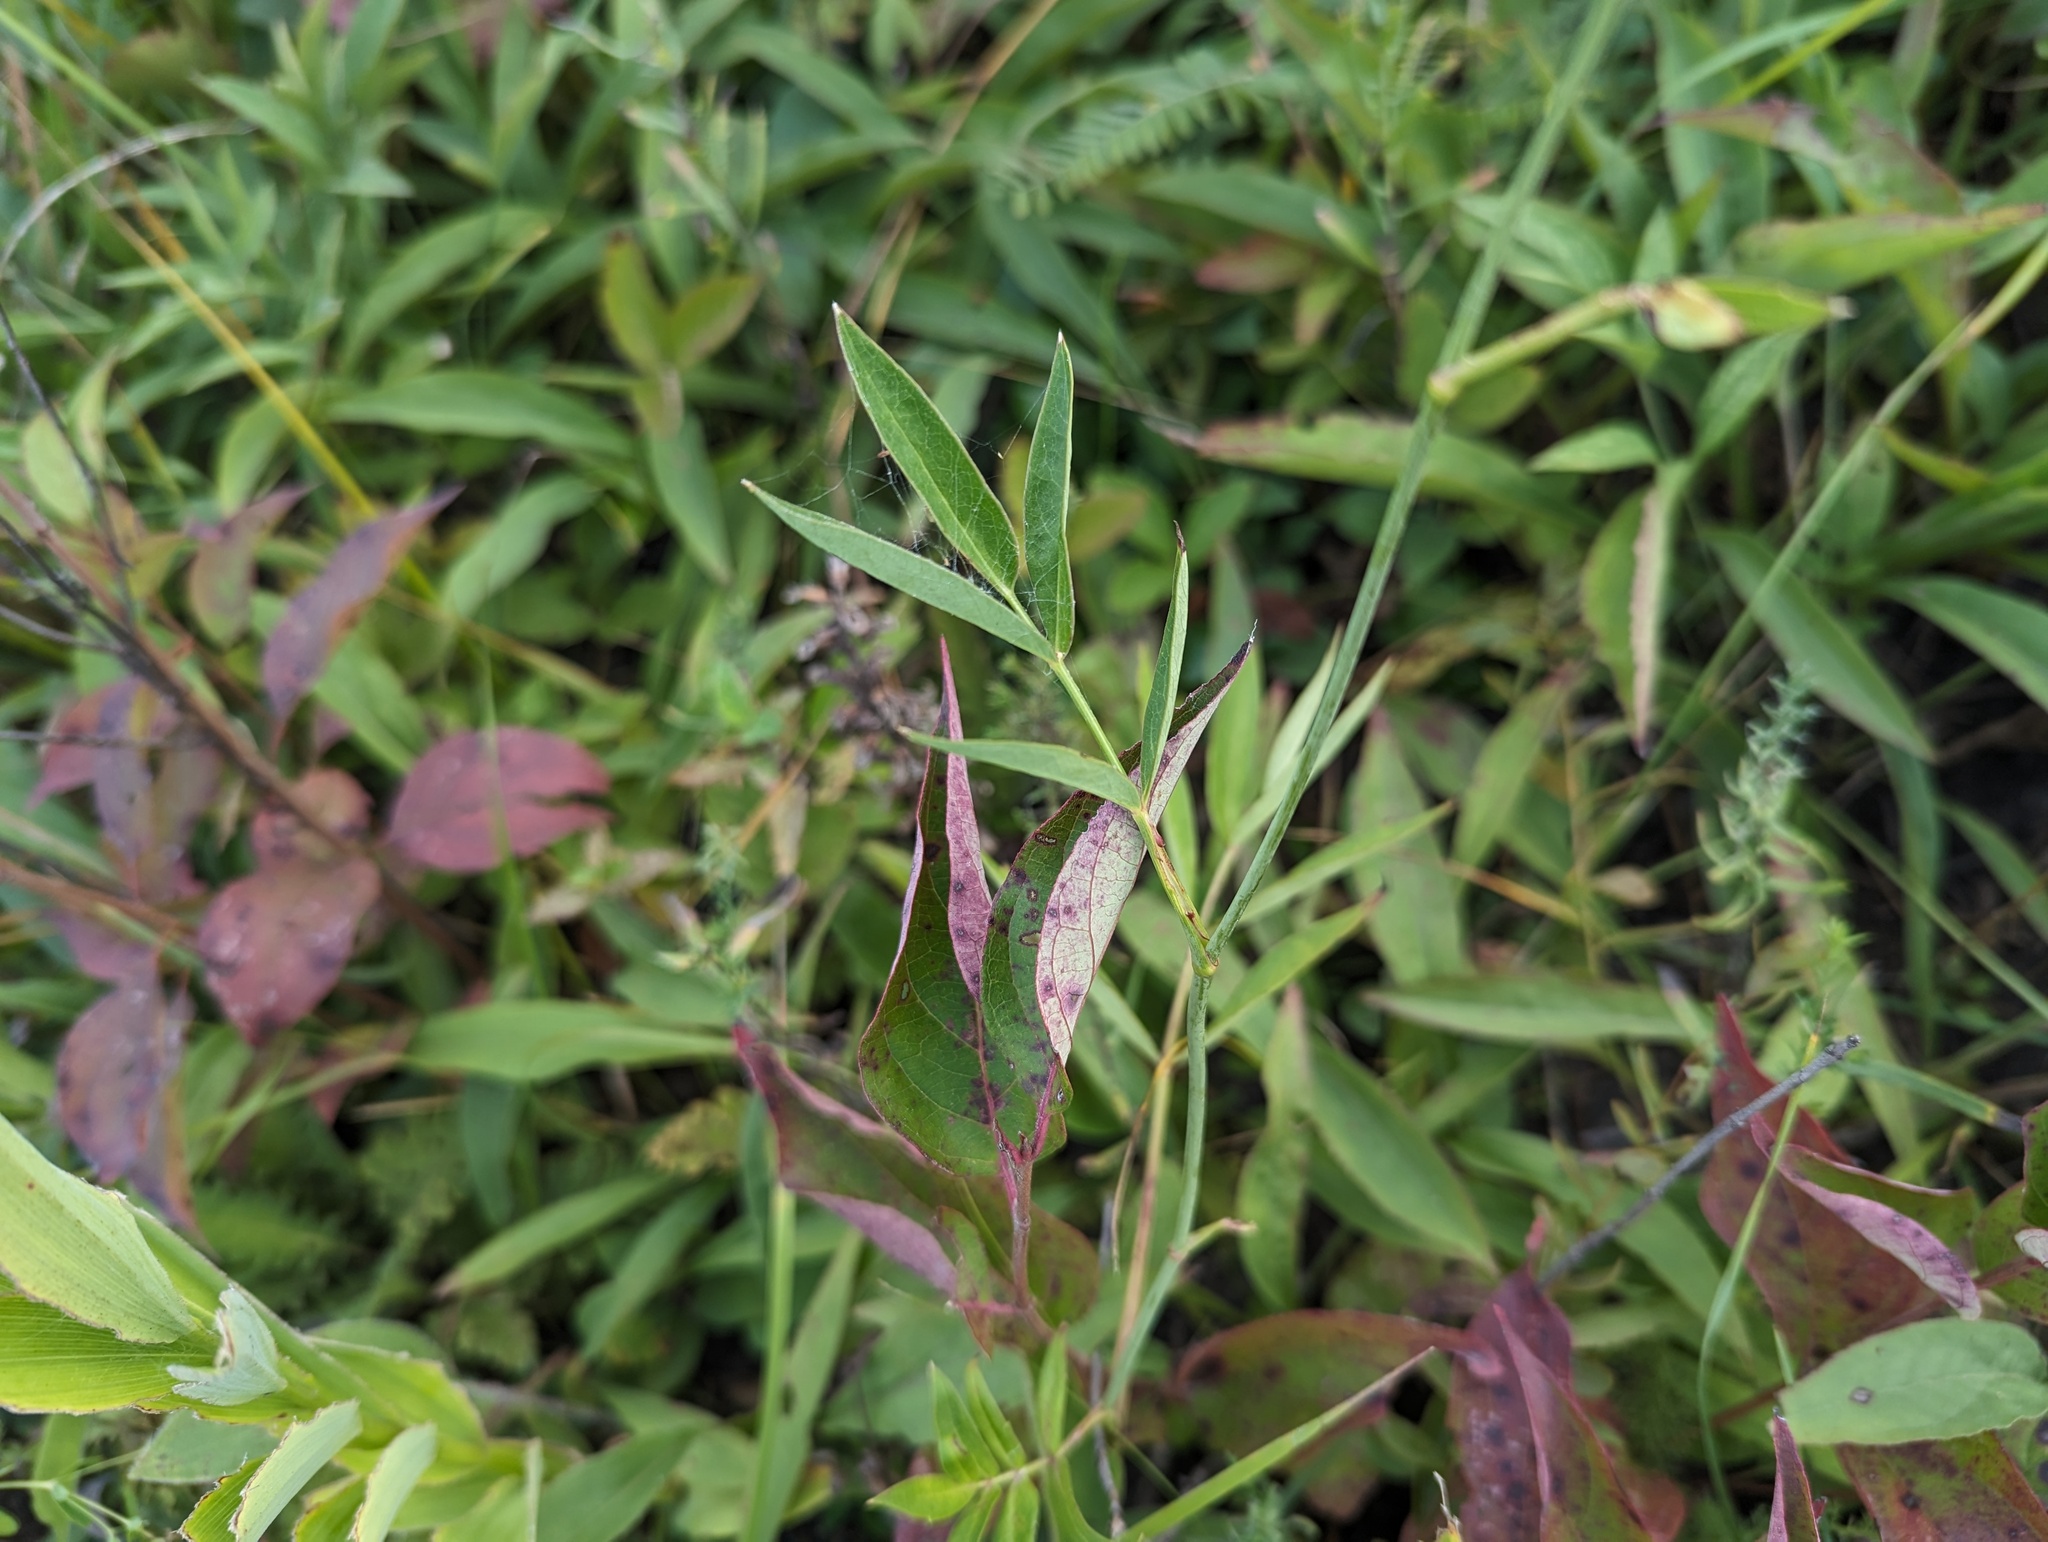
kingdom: Plantae
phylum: Tracheophyta
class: Magnoliopsida
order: Apiales
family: Apiaceae
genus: Oxypolis
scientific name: Oxypolis rigidior
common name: Cowbane
